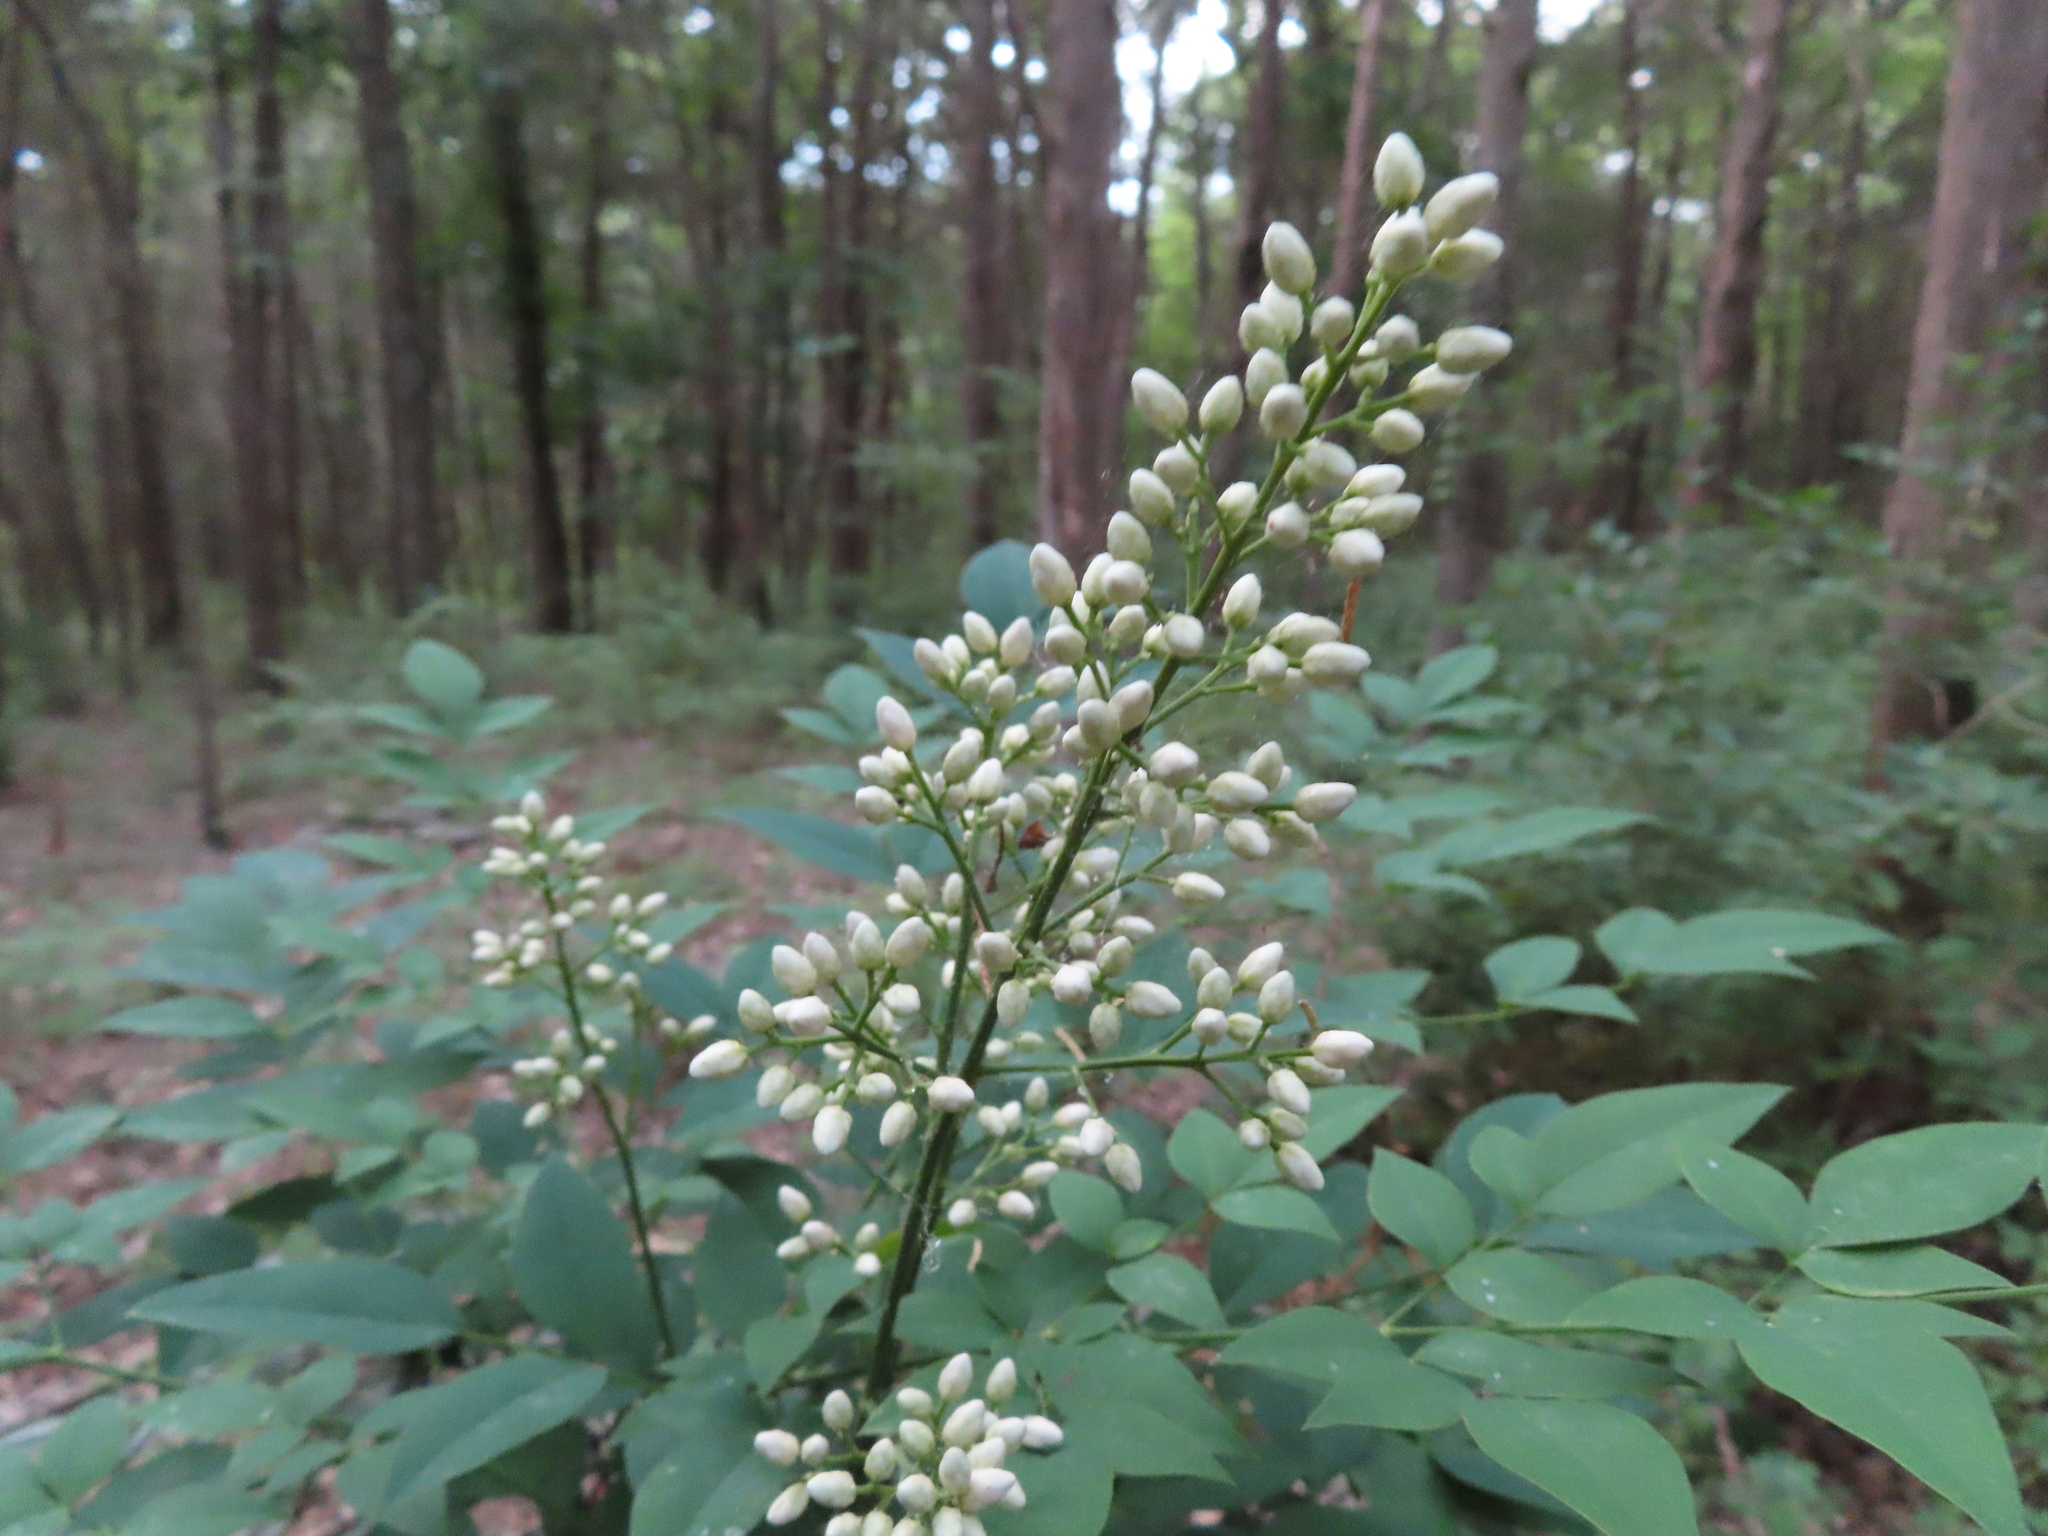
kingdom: Plantae
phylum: Tracheophyta
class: Magnoliopsida
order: Ranunculales
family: Berberidaceae
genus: Nandina
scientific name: Nandina domestica
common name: Sacred bamboo
